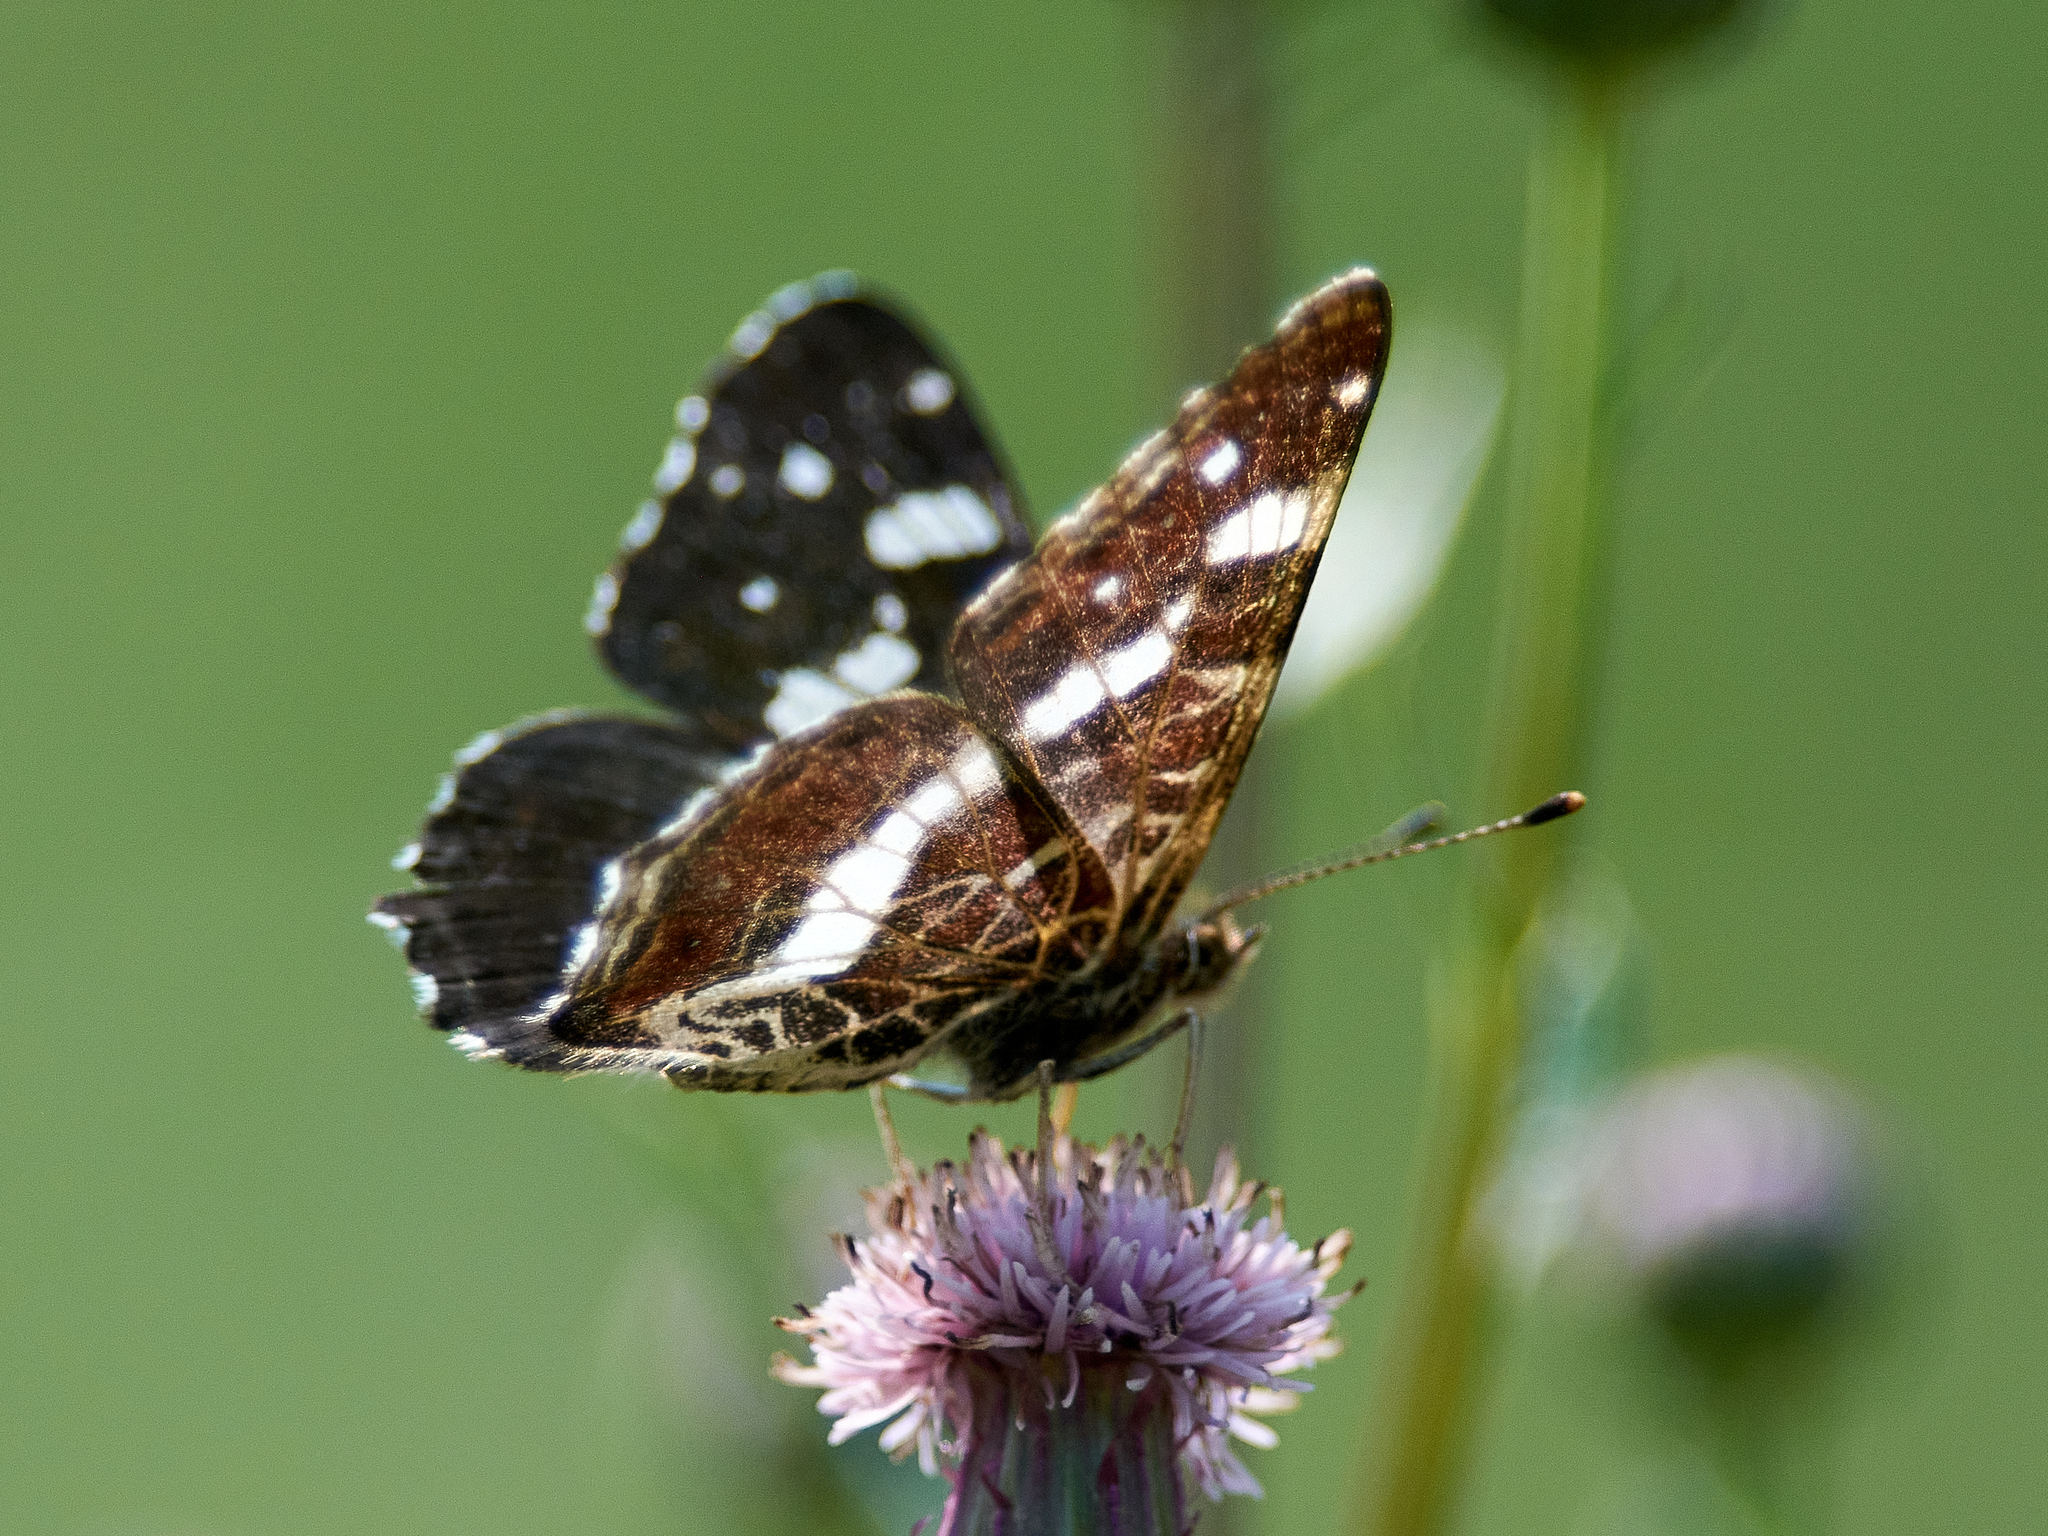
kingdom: Animalia
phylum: Arthropoda
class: Insecta
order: Lepidoptera
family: Nymphalidae
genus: Araschnia
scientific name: Araschnia levana
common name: Map butterfly
